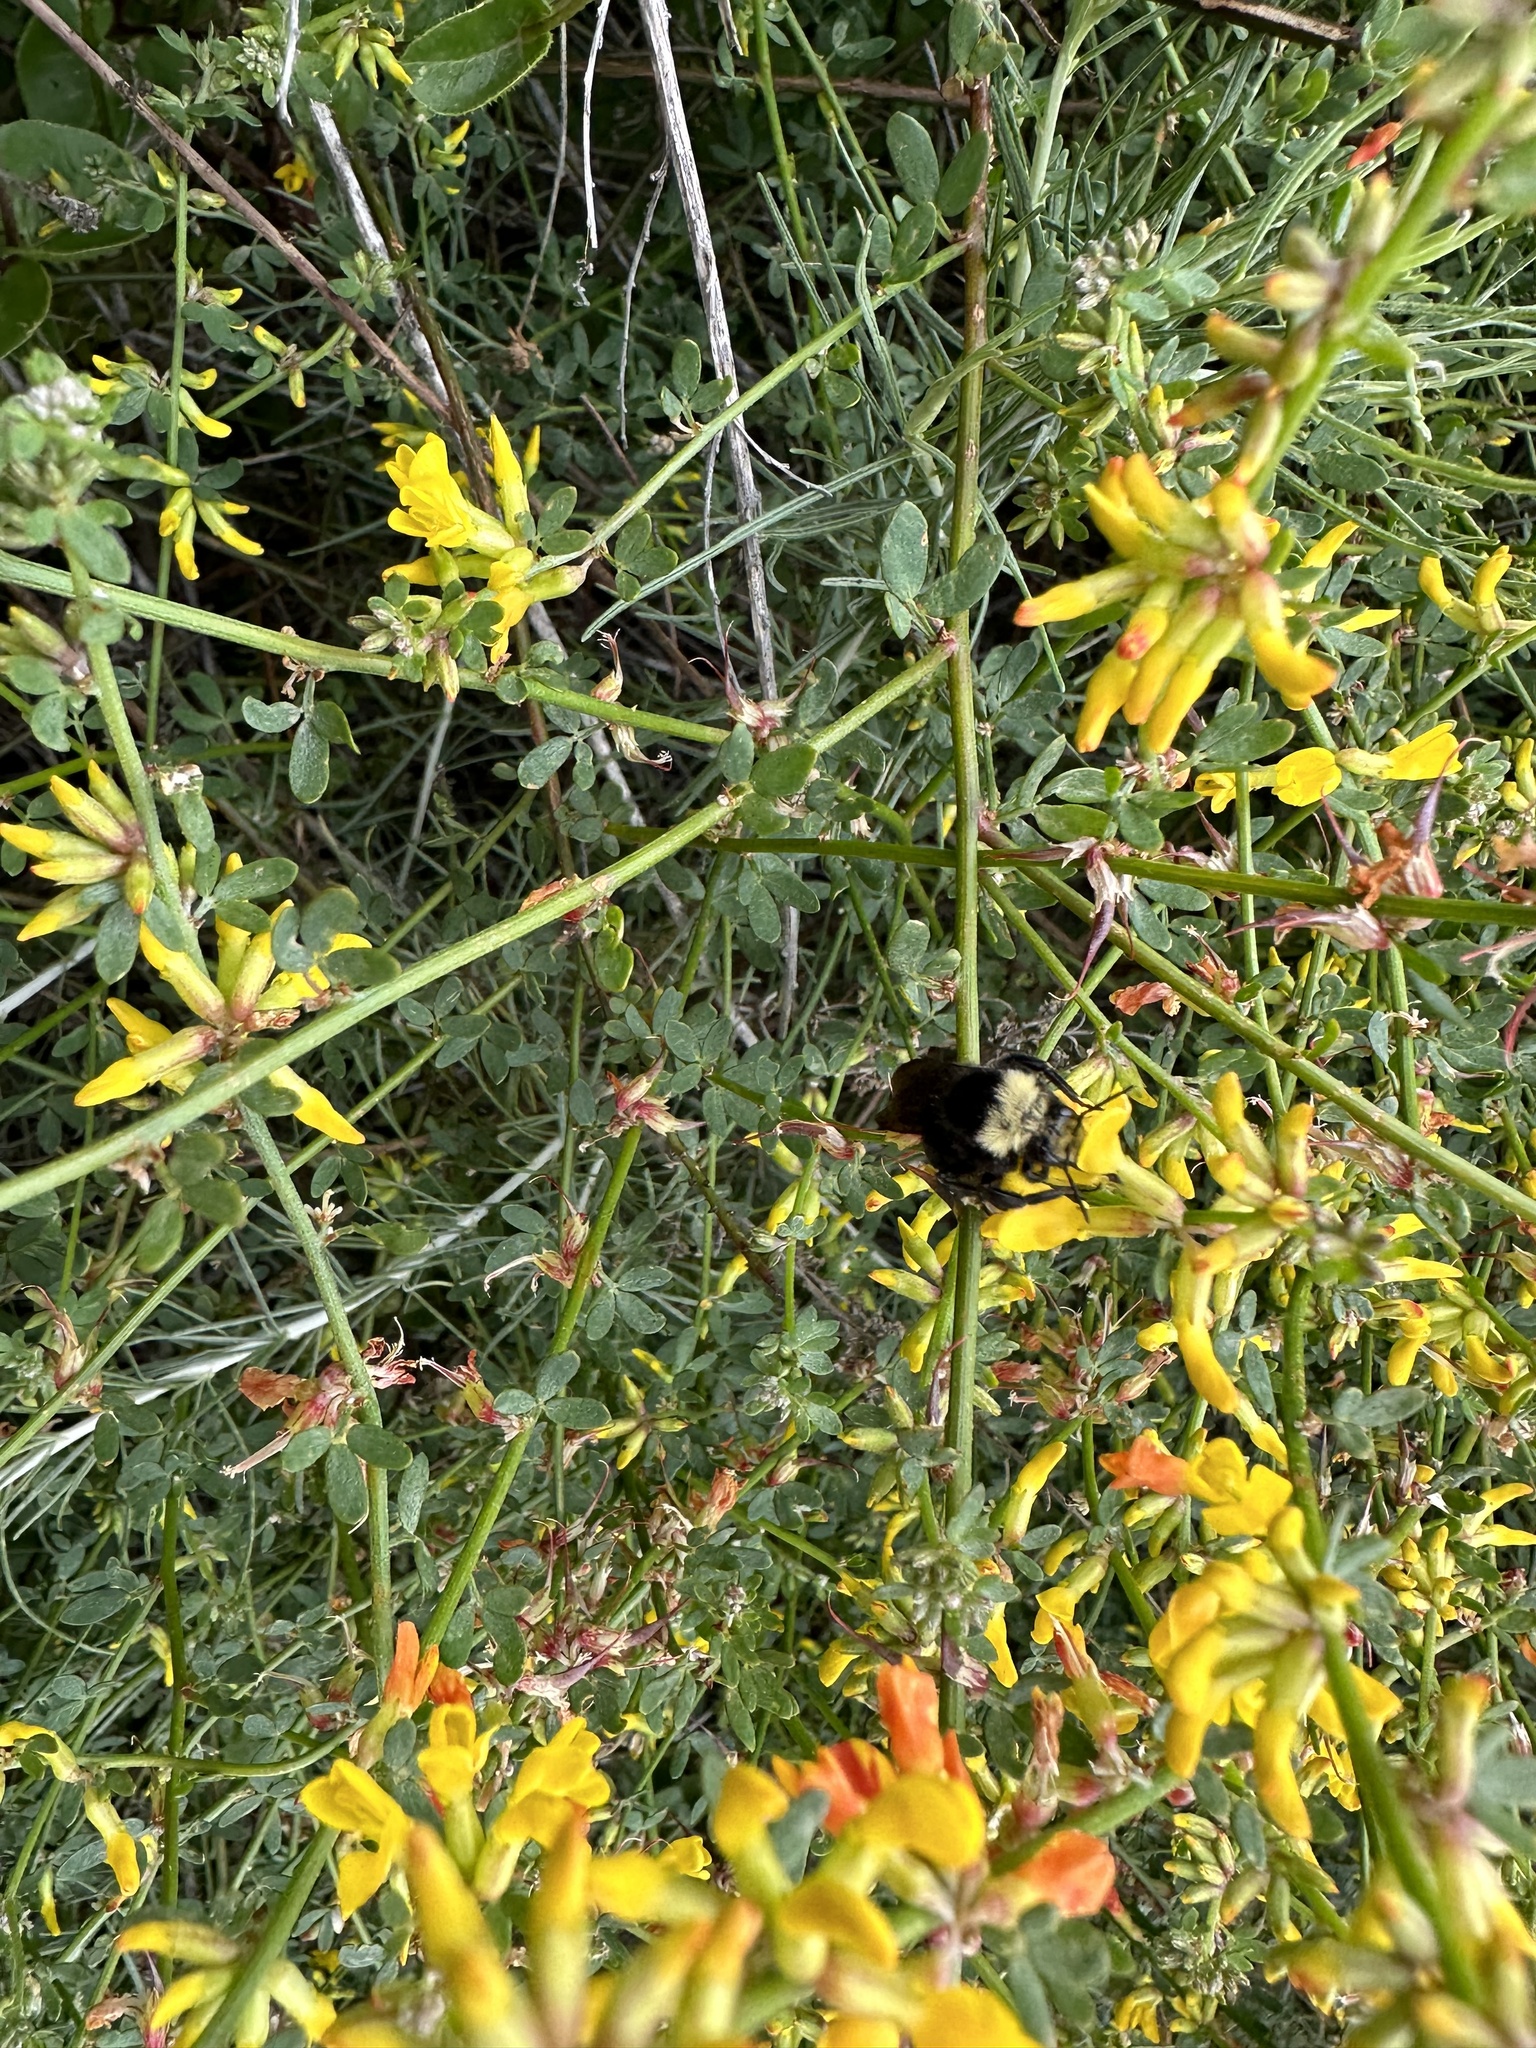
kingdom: Animalia
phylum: Arthropoda
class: Insecta
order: Hymenoptera
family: Apidae
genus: Bombus
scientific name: Bombus vosnesenskii
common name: Vosnesensky bumble bee
